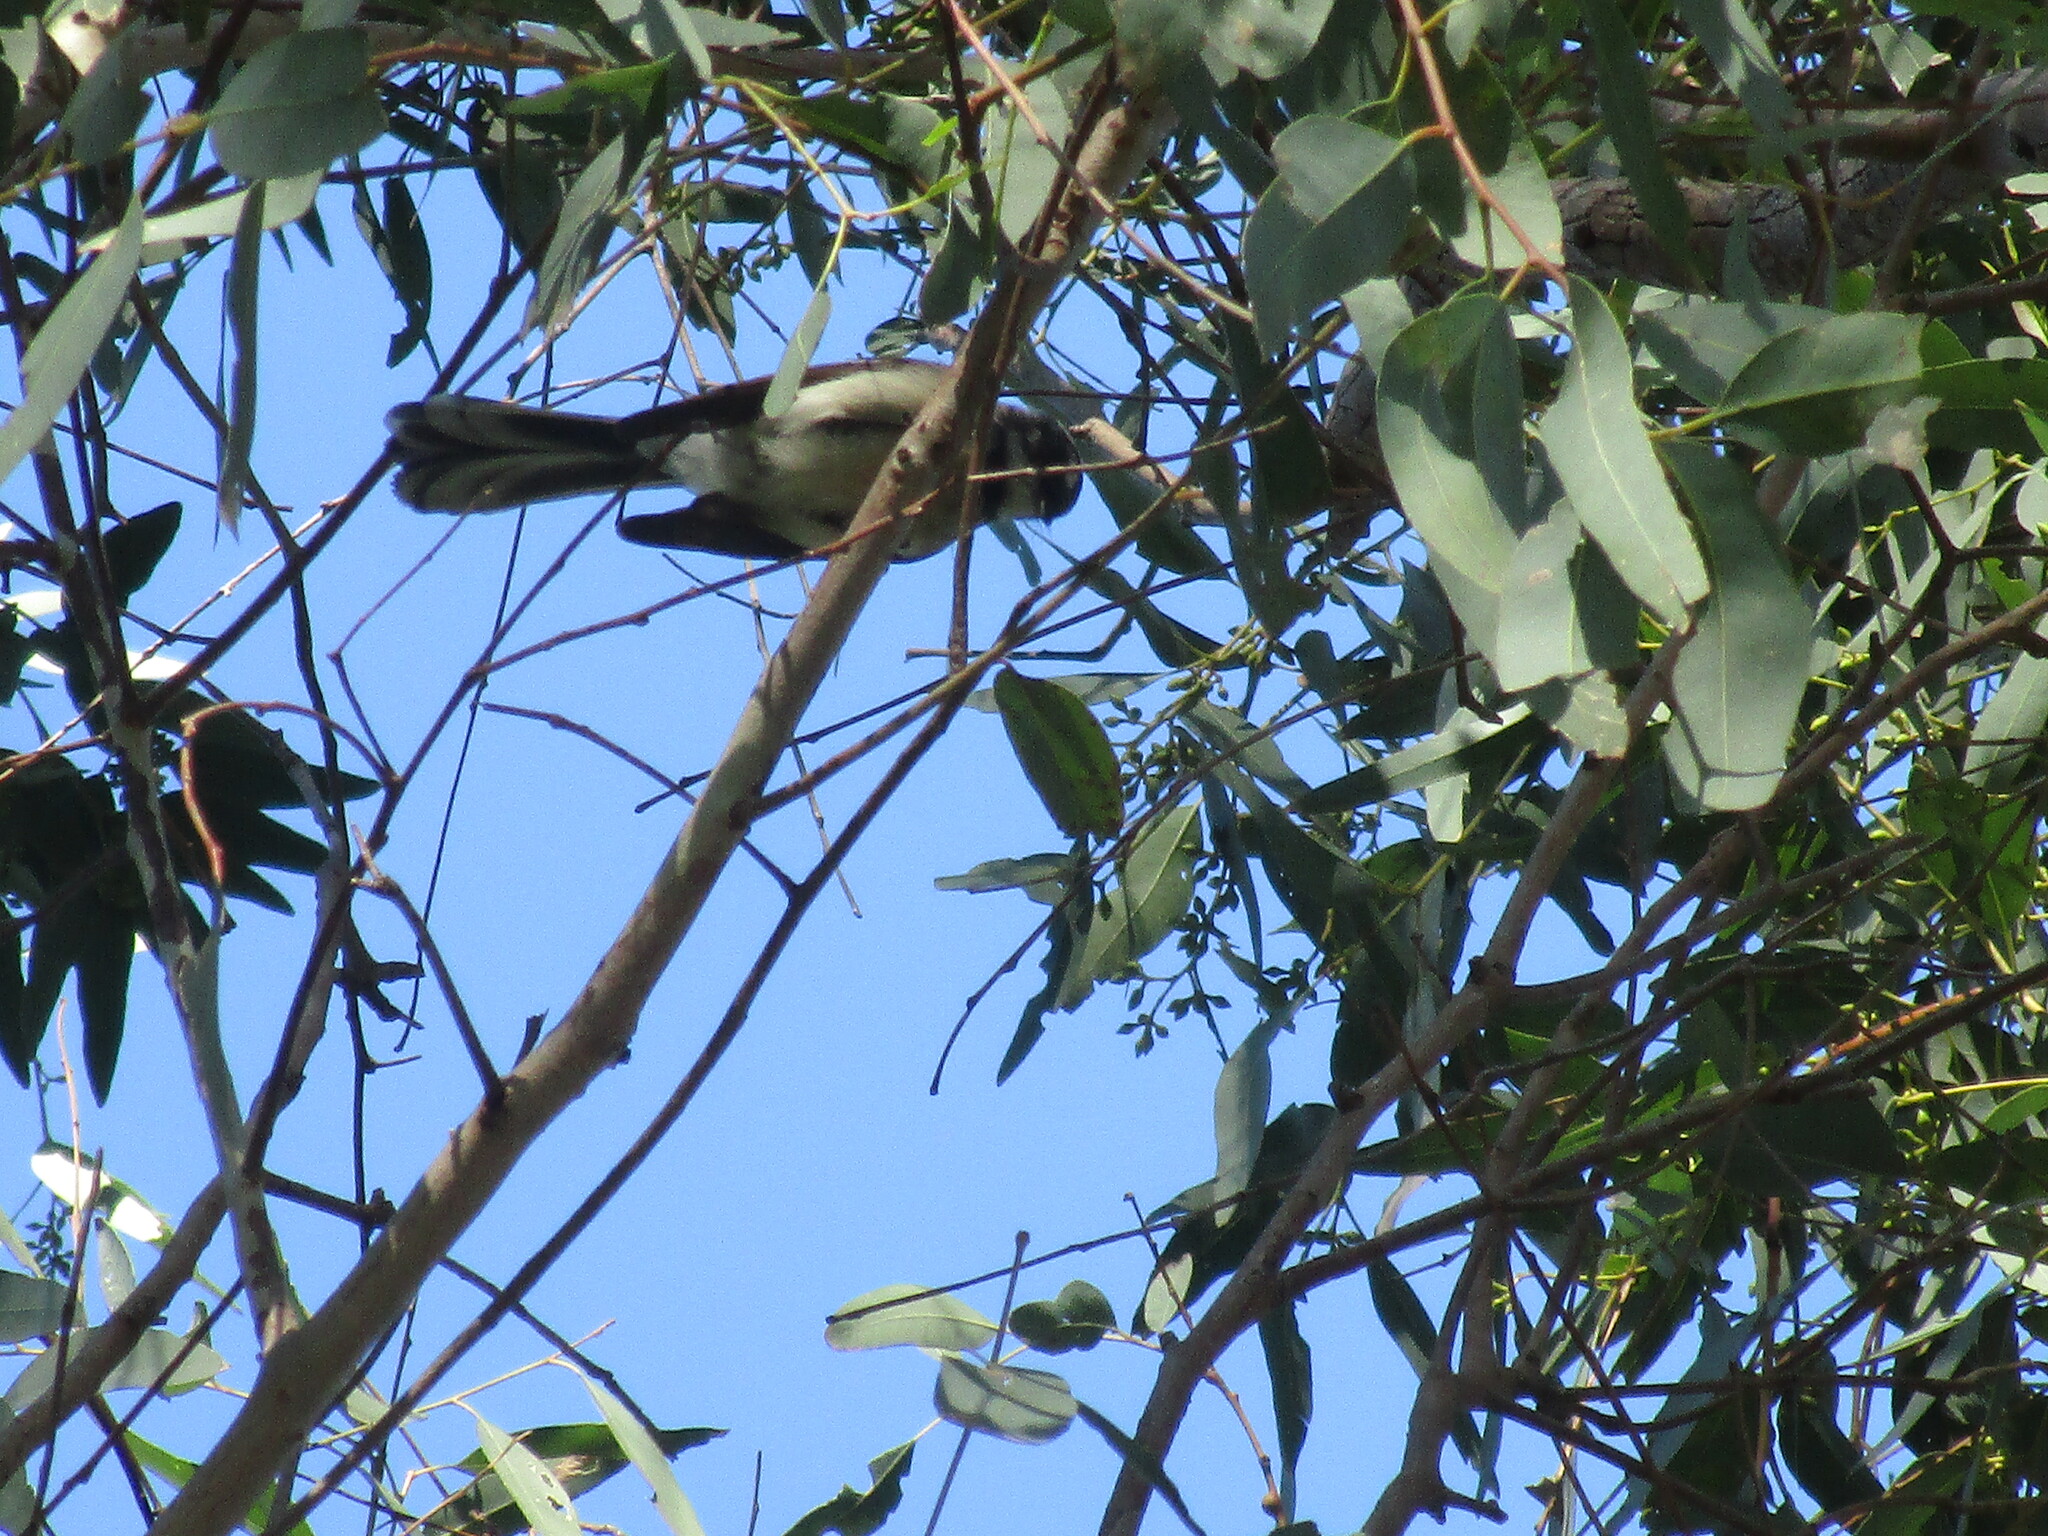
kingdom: Animalia
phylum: Chordata
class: Aves
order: Passeriformes
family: Rhipiduridae
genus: Rhipidura
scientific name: Rhipidura albiscapa
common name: Grey fantail
